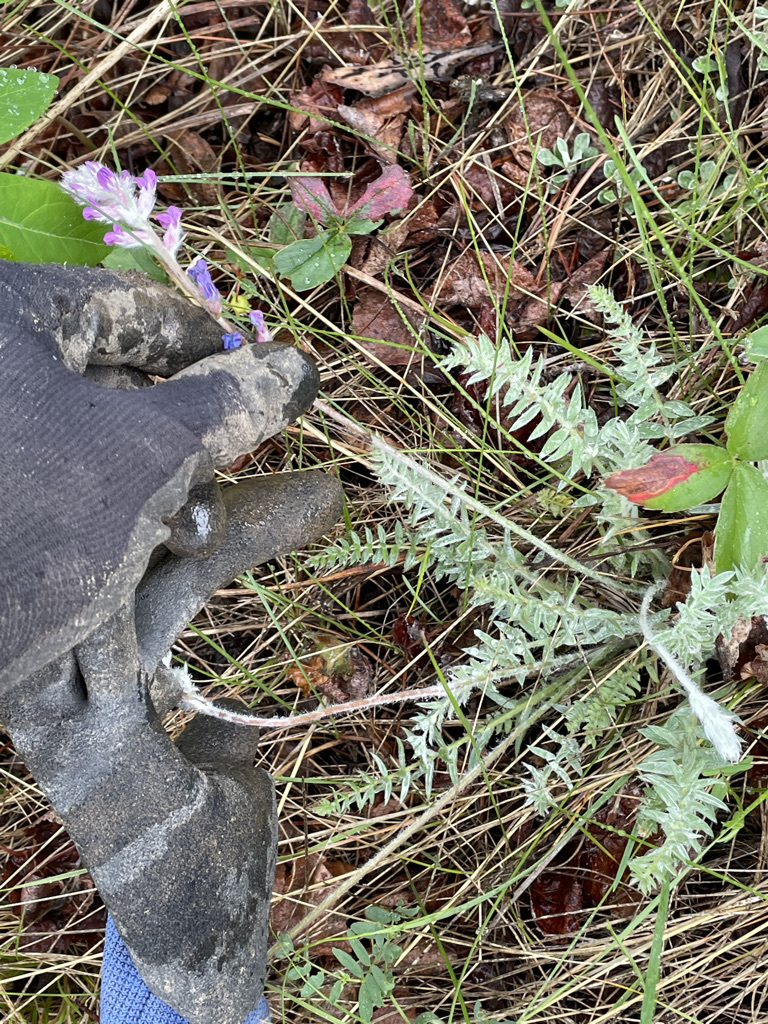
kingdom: Plantae
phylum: Tracheophyta
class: Magnoliopsida
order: Fabales
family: Fabaceae
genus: Oxytropis
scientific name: Oxytropis splendens
